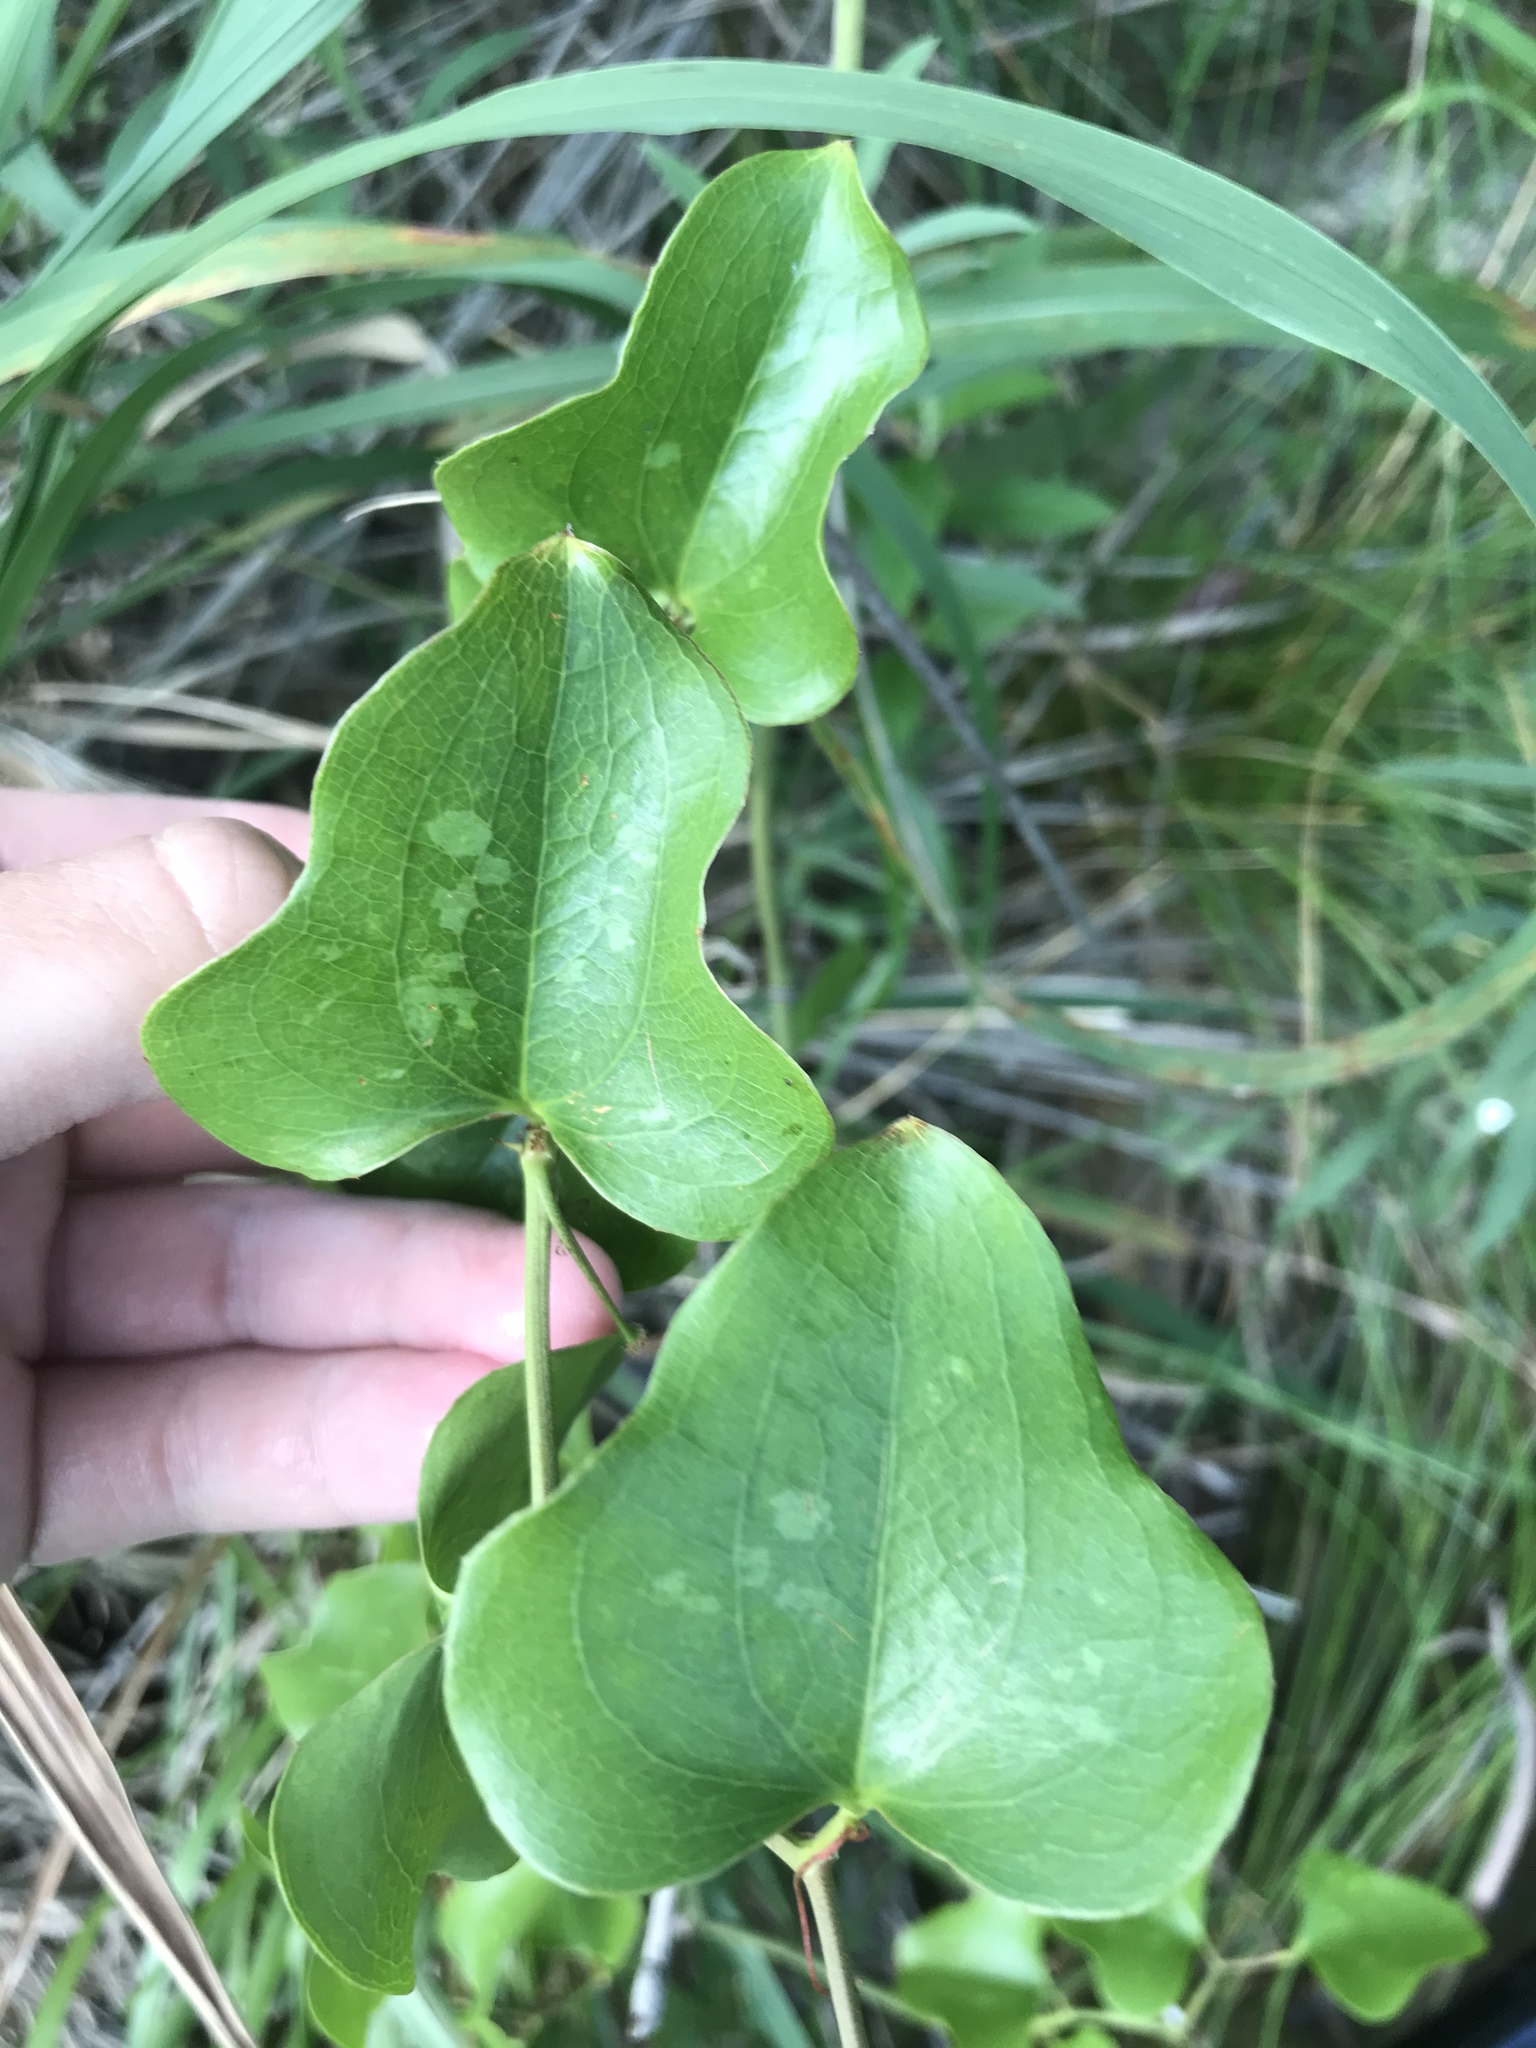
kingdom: Plantae
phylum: Tracheophyta
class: Liliopsida
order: Liliales
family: Smilacaceae
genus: Smilax
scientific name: Smilax bona-nox
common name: Catbrier
